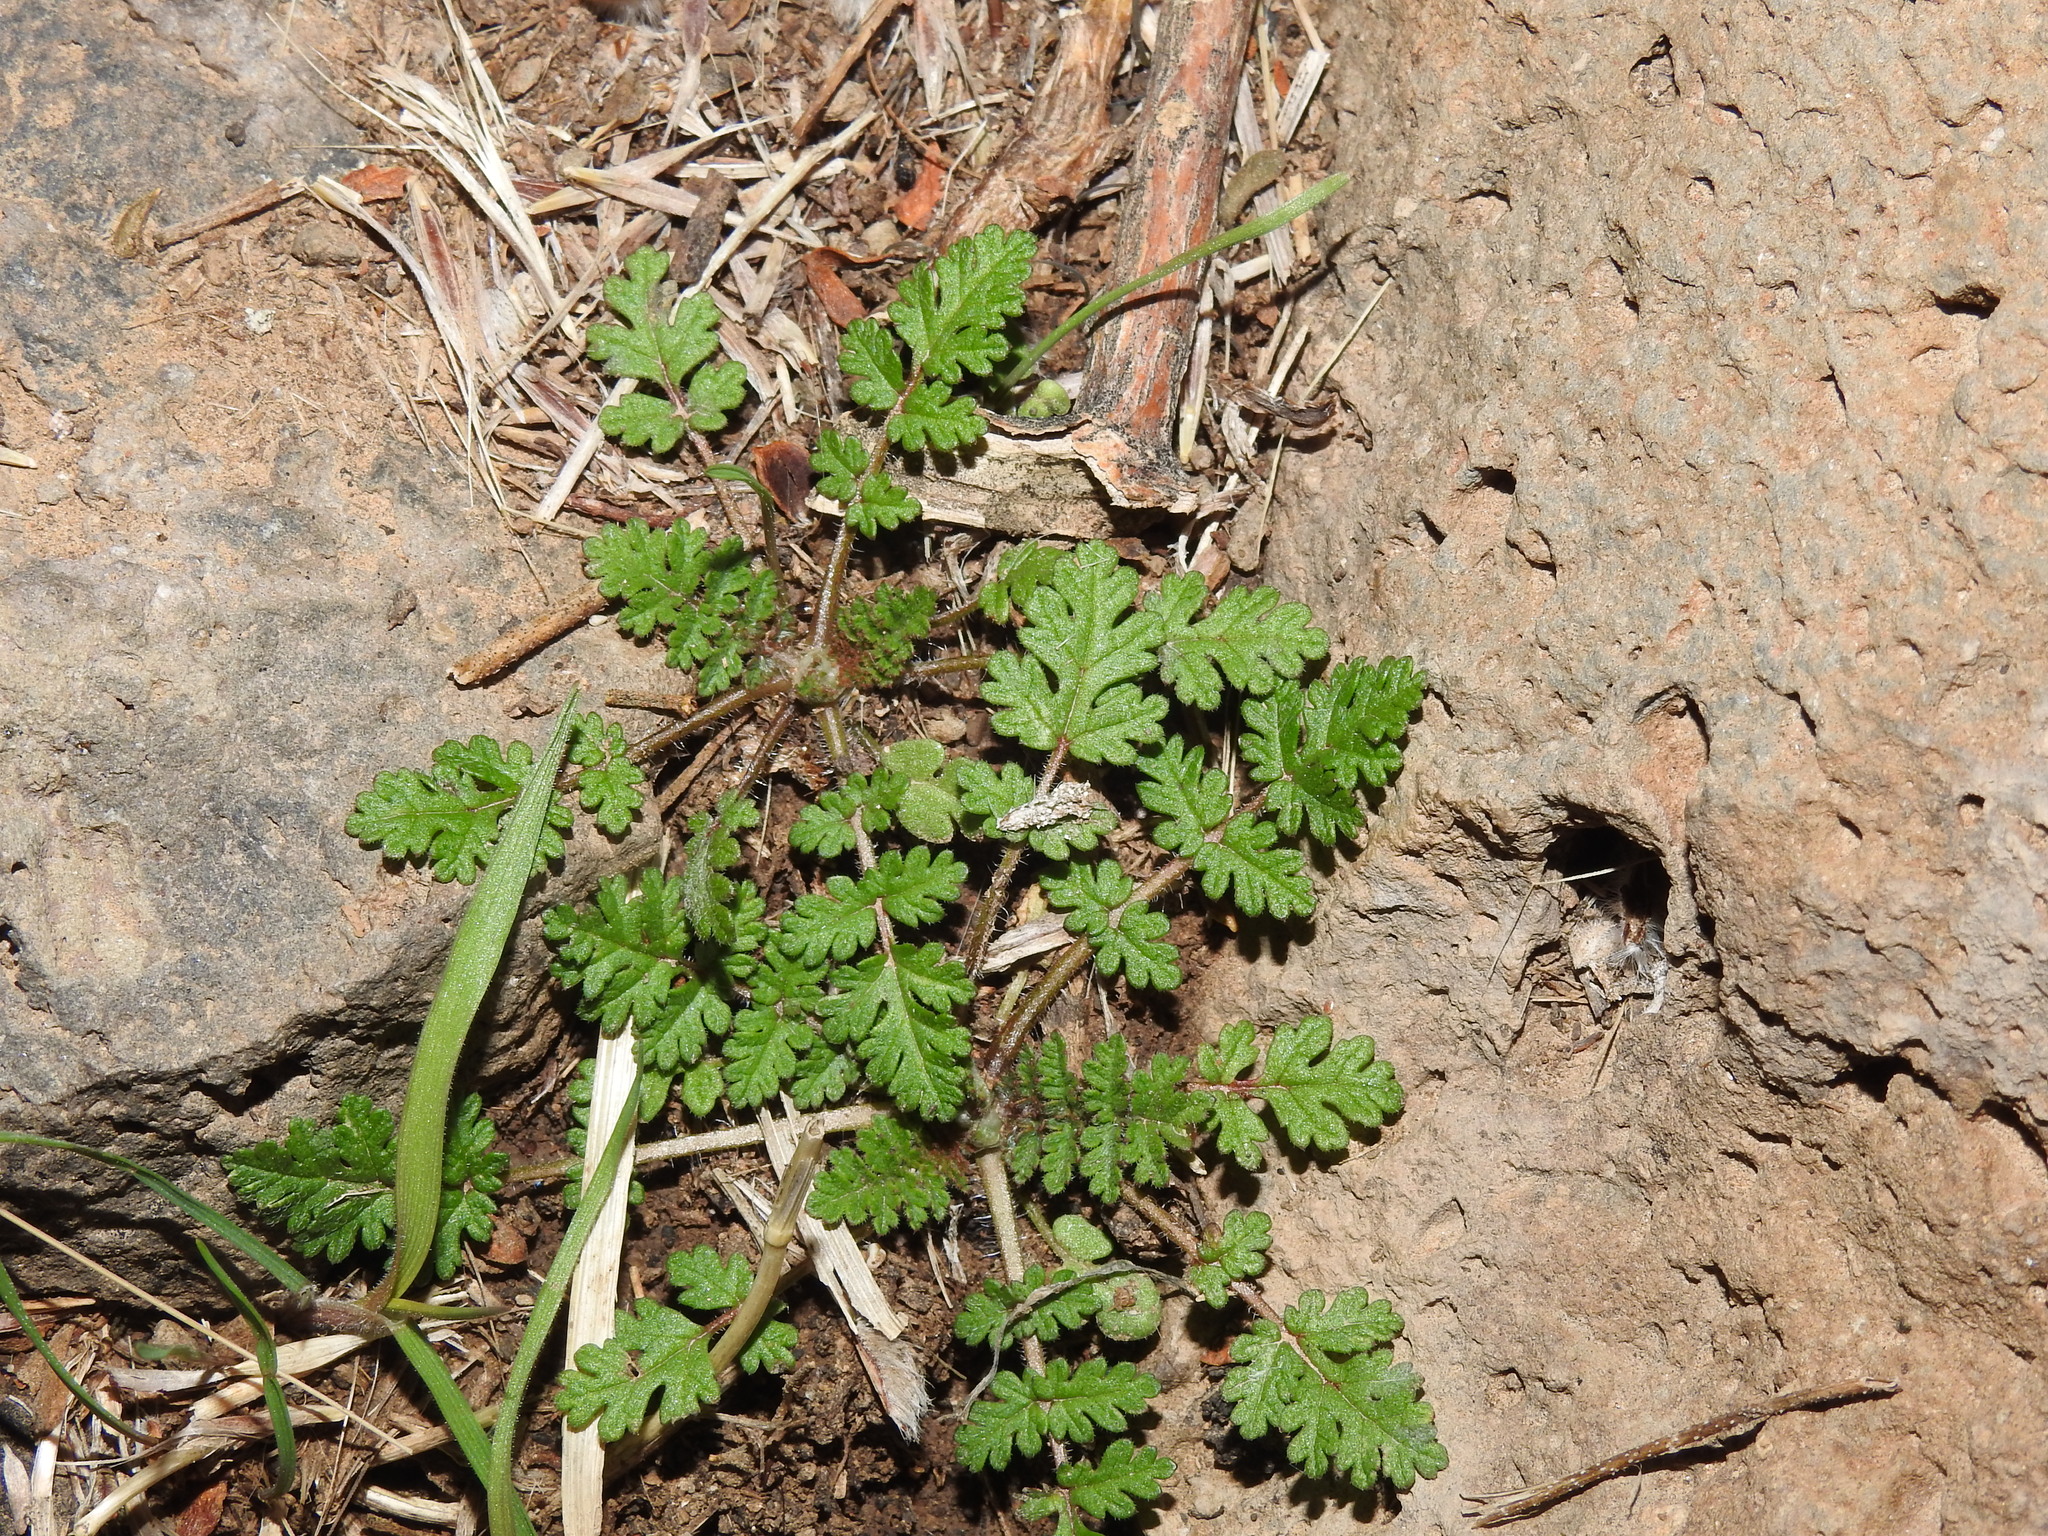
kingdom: Plantae
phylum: Tracheophyta
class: Magnoliopsida
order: Geraniales
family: Geraniaceae
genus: Erodium
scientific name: Erodium cicutarium
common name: Common stork's-bill
